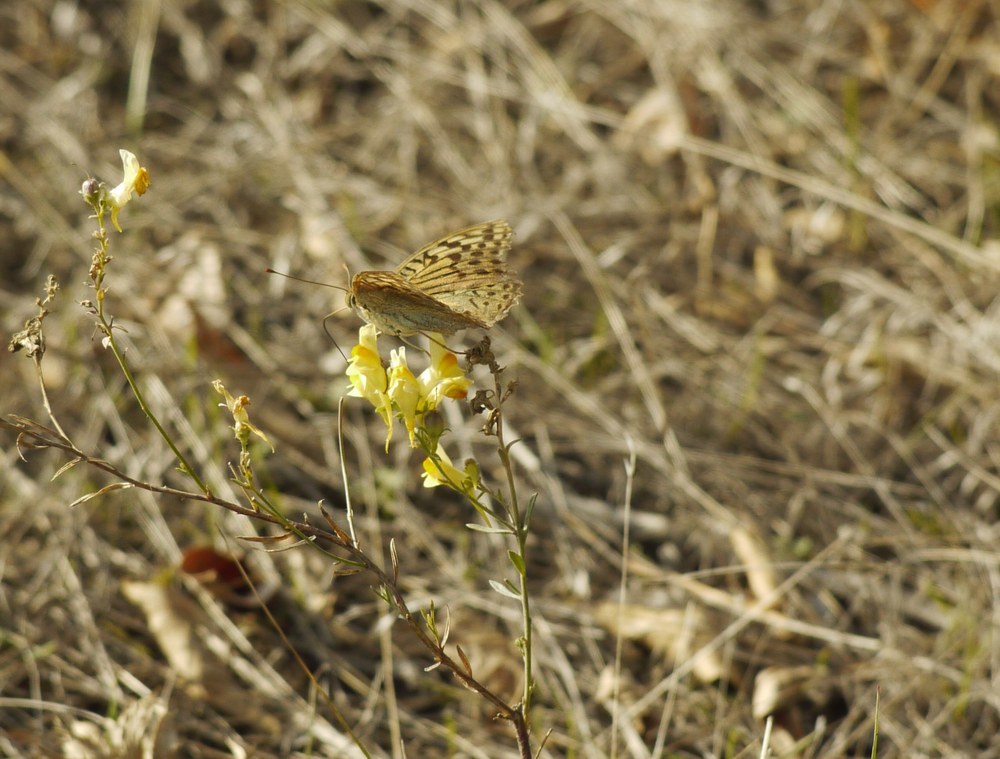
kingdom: Animalia
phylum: Arthropoda
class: Insecta
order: Lepidoptera
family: Nymphalidae
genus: Damora
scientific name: Damora pandora
